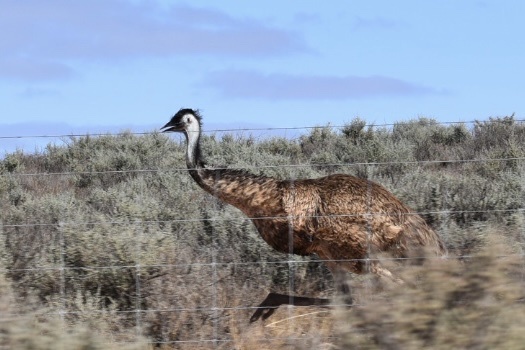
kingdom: Animalia
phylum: Chordata
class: Aves
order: Casuariiformes
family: Dromaiidae
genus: Dromaius
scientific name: Dromaius novaehollandiae
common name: Emu
